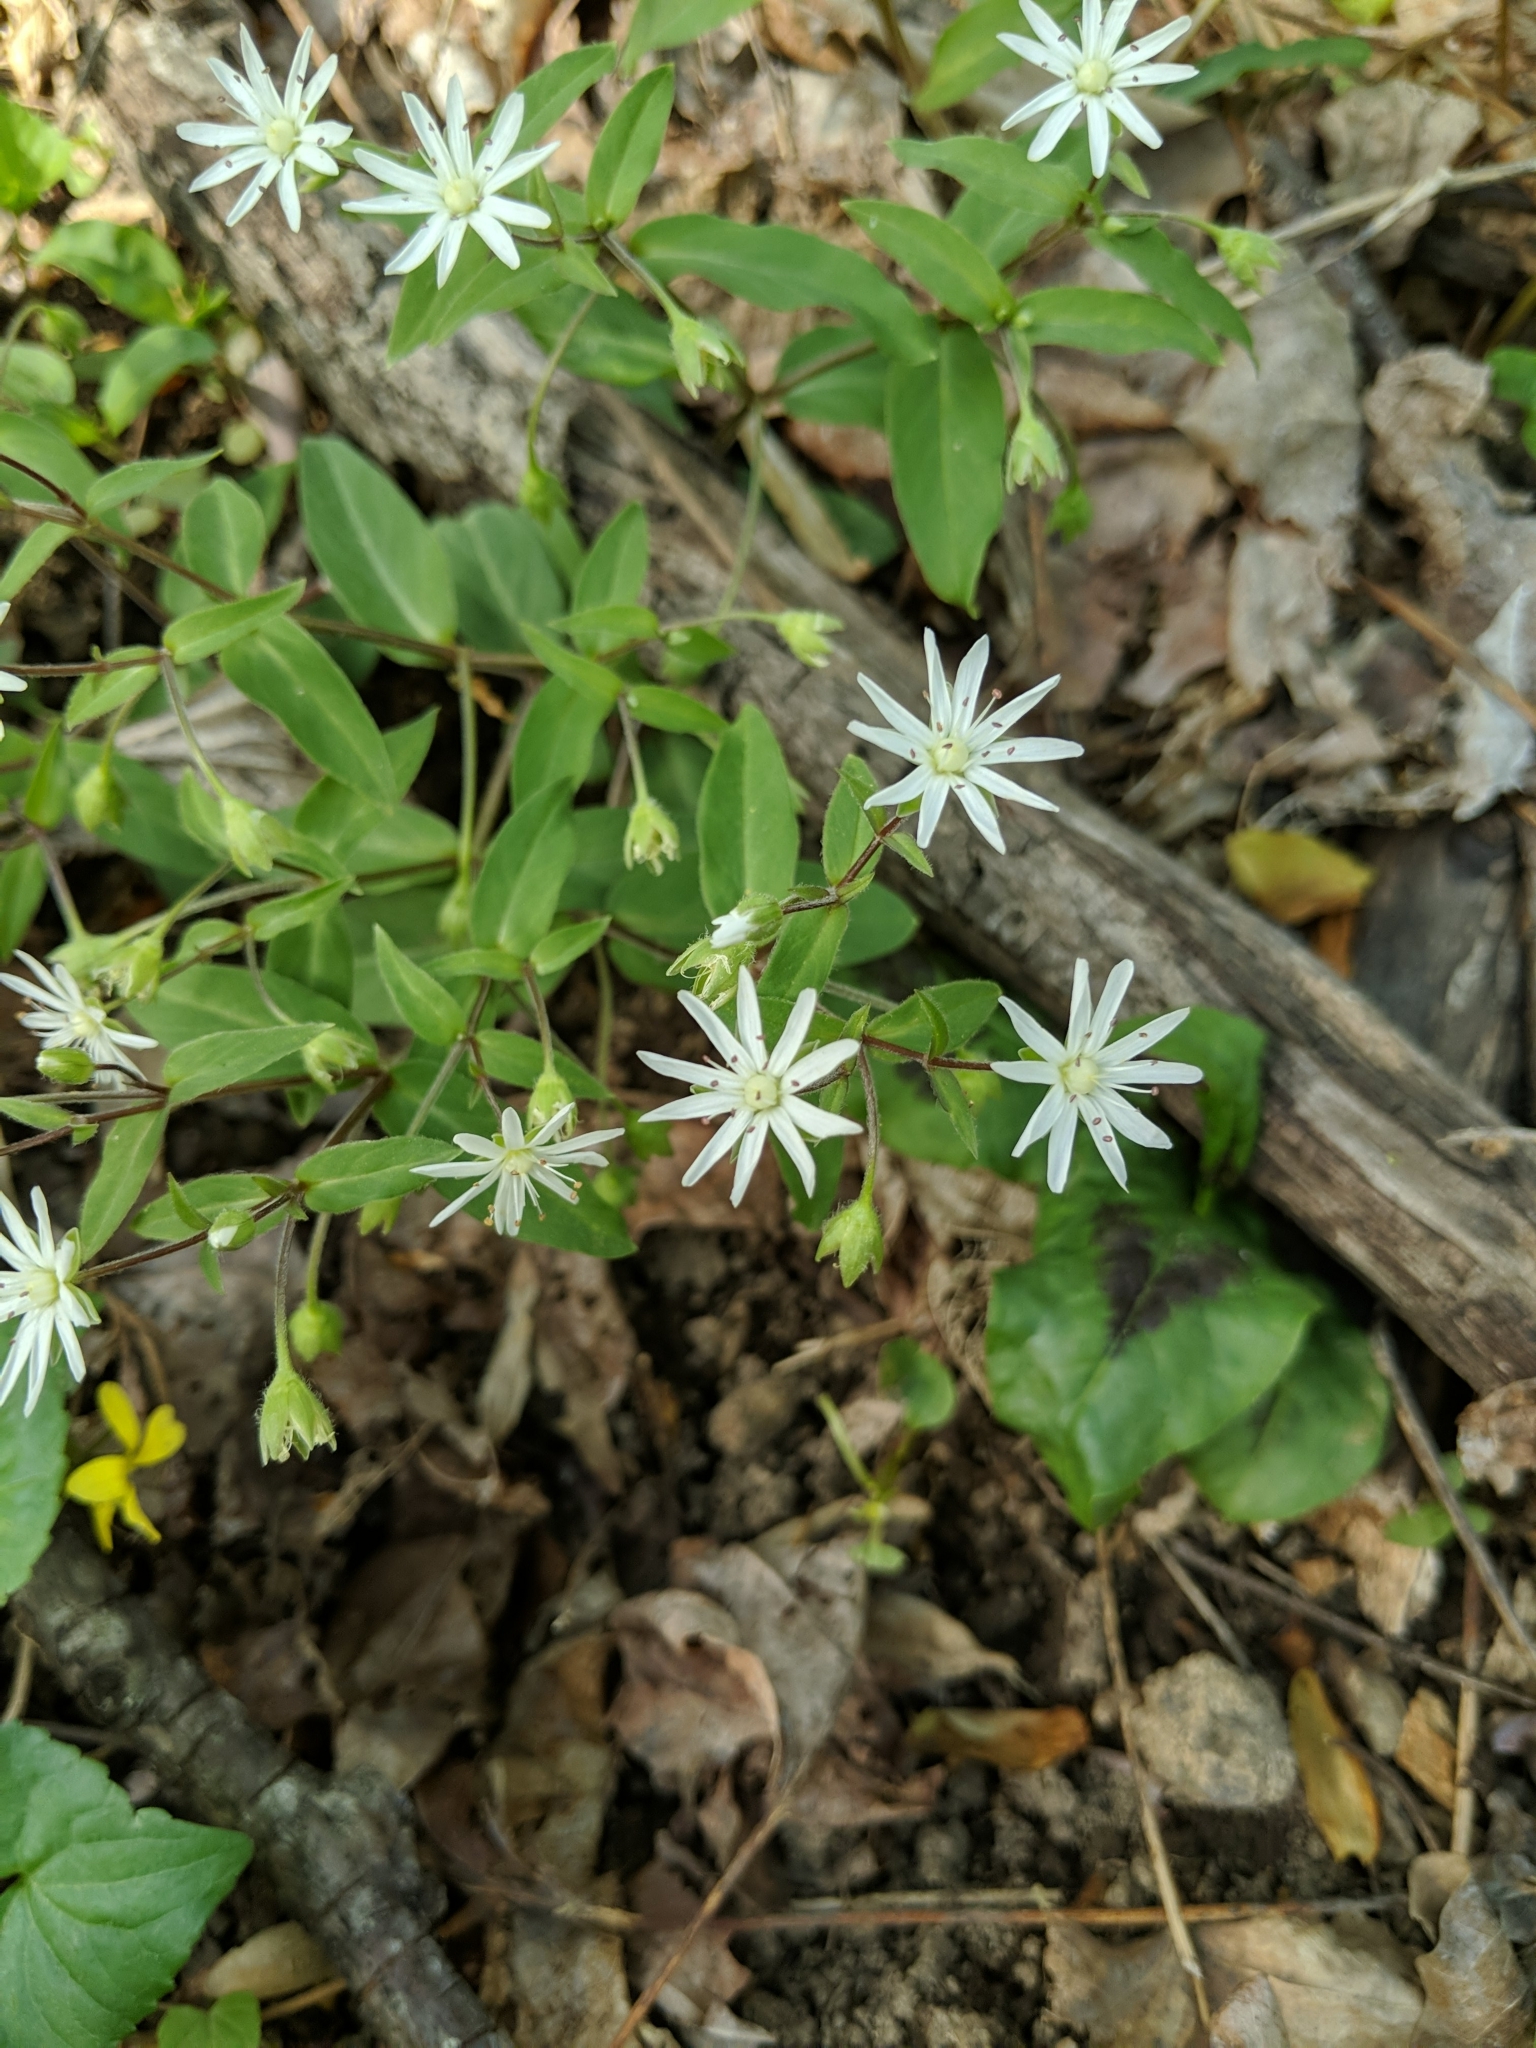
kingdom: Plantae
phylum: Tracheophyta
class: Magnoliopsida
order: Caryophyllales
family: Caryophyllaceae
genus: Stellaria
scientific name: Stellaria pubera
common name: Star chickweed
